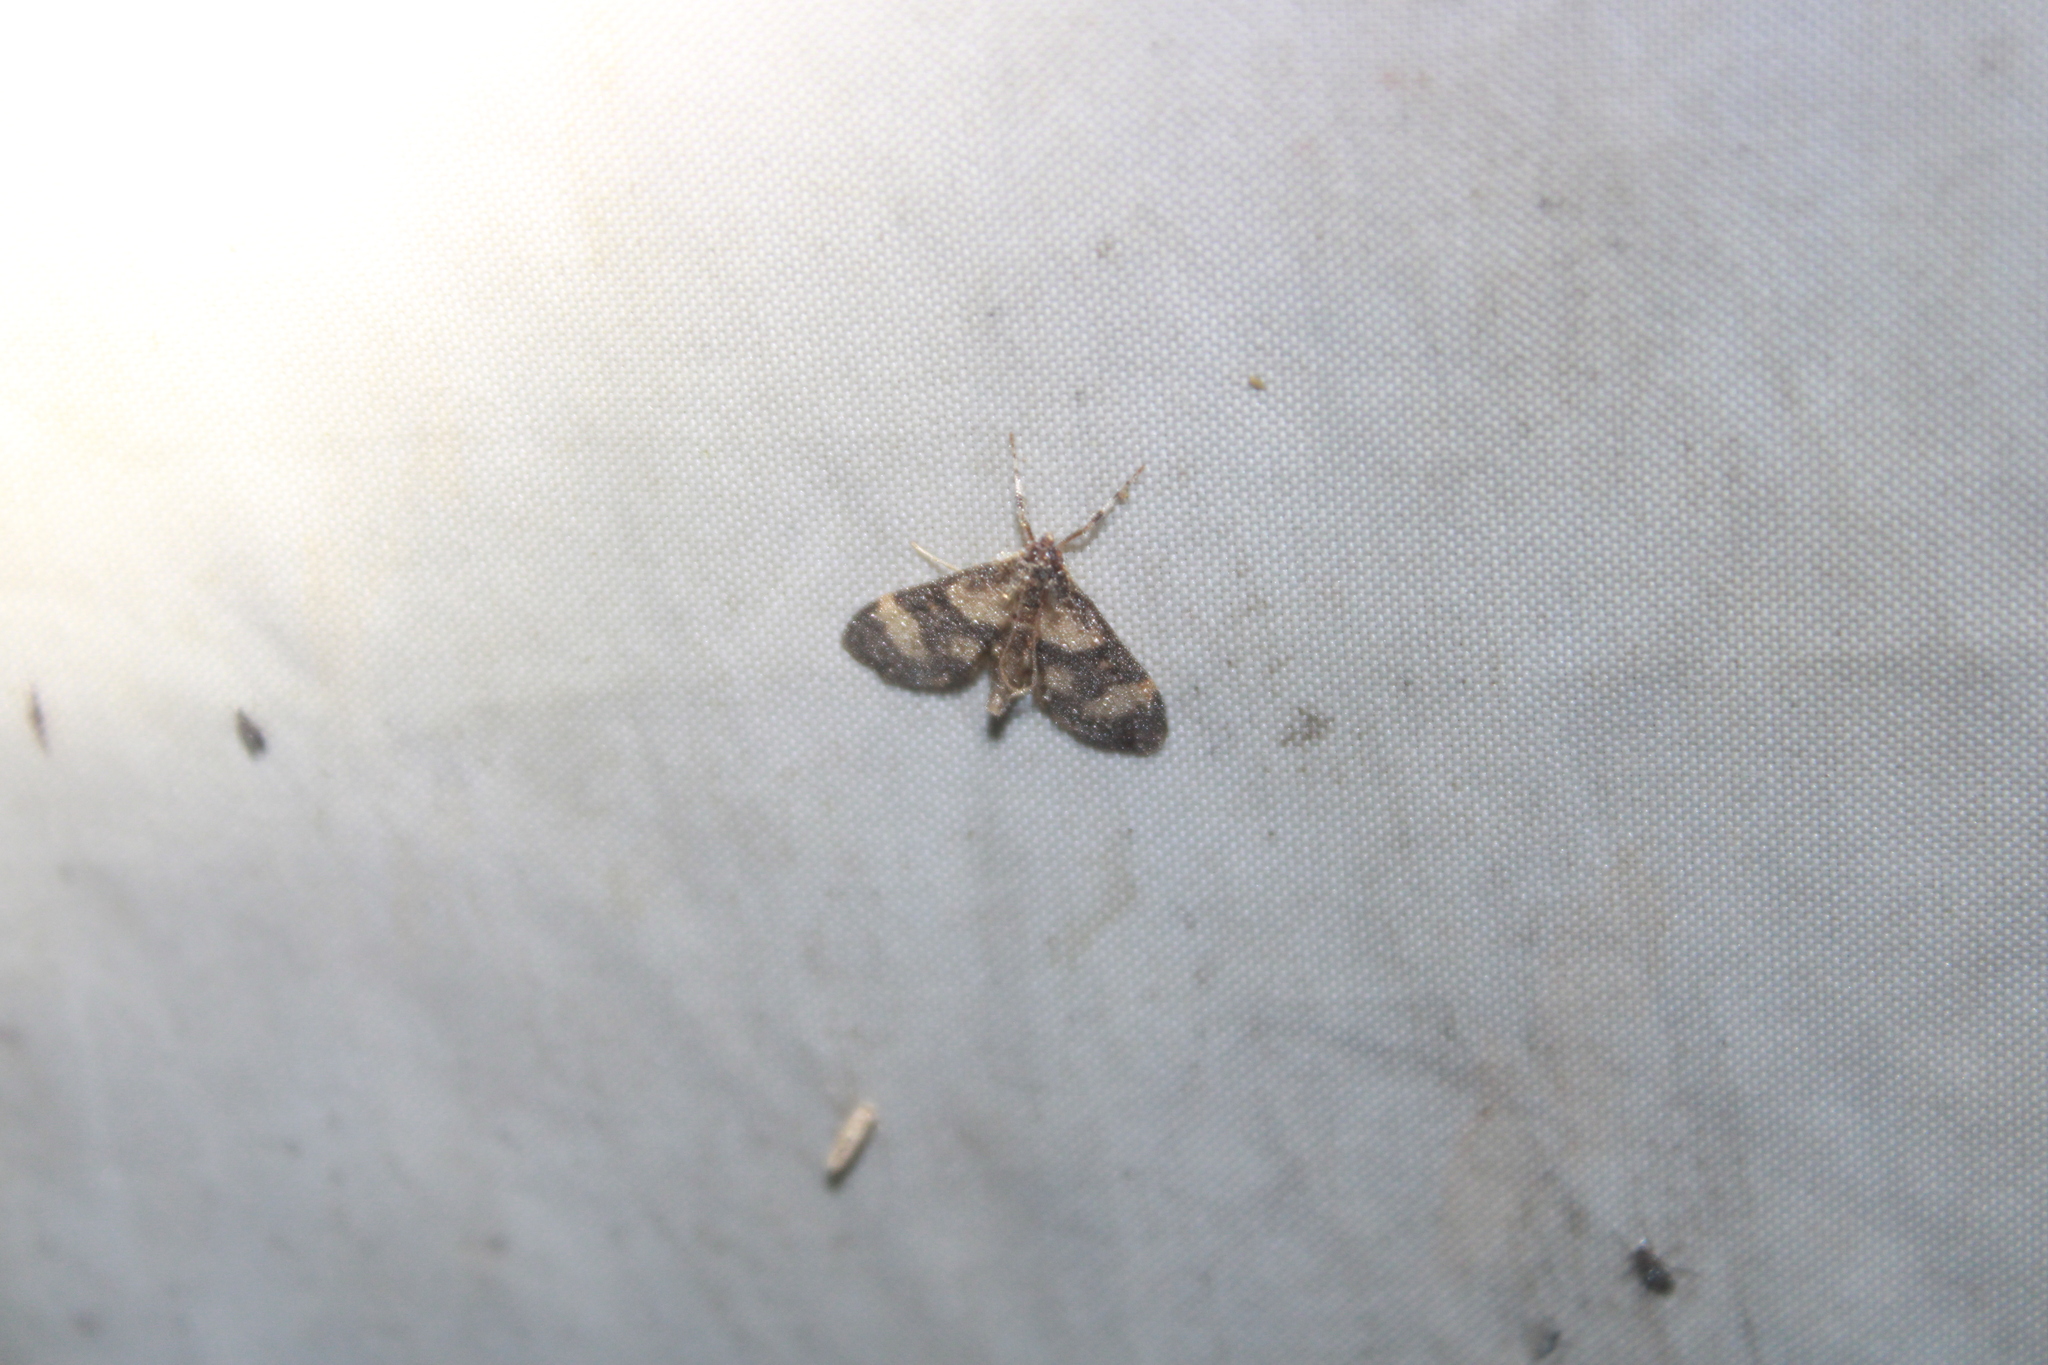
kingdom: Animalia
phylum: Arthropoda
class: Insecta
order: Lepidoptera
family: Crambidae
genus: Lygropia
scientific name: Lygropia fusalis
